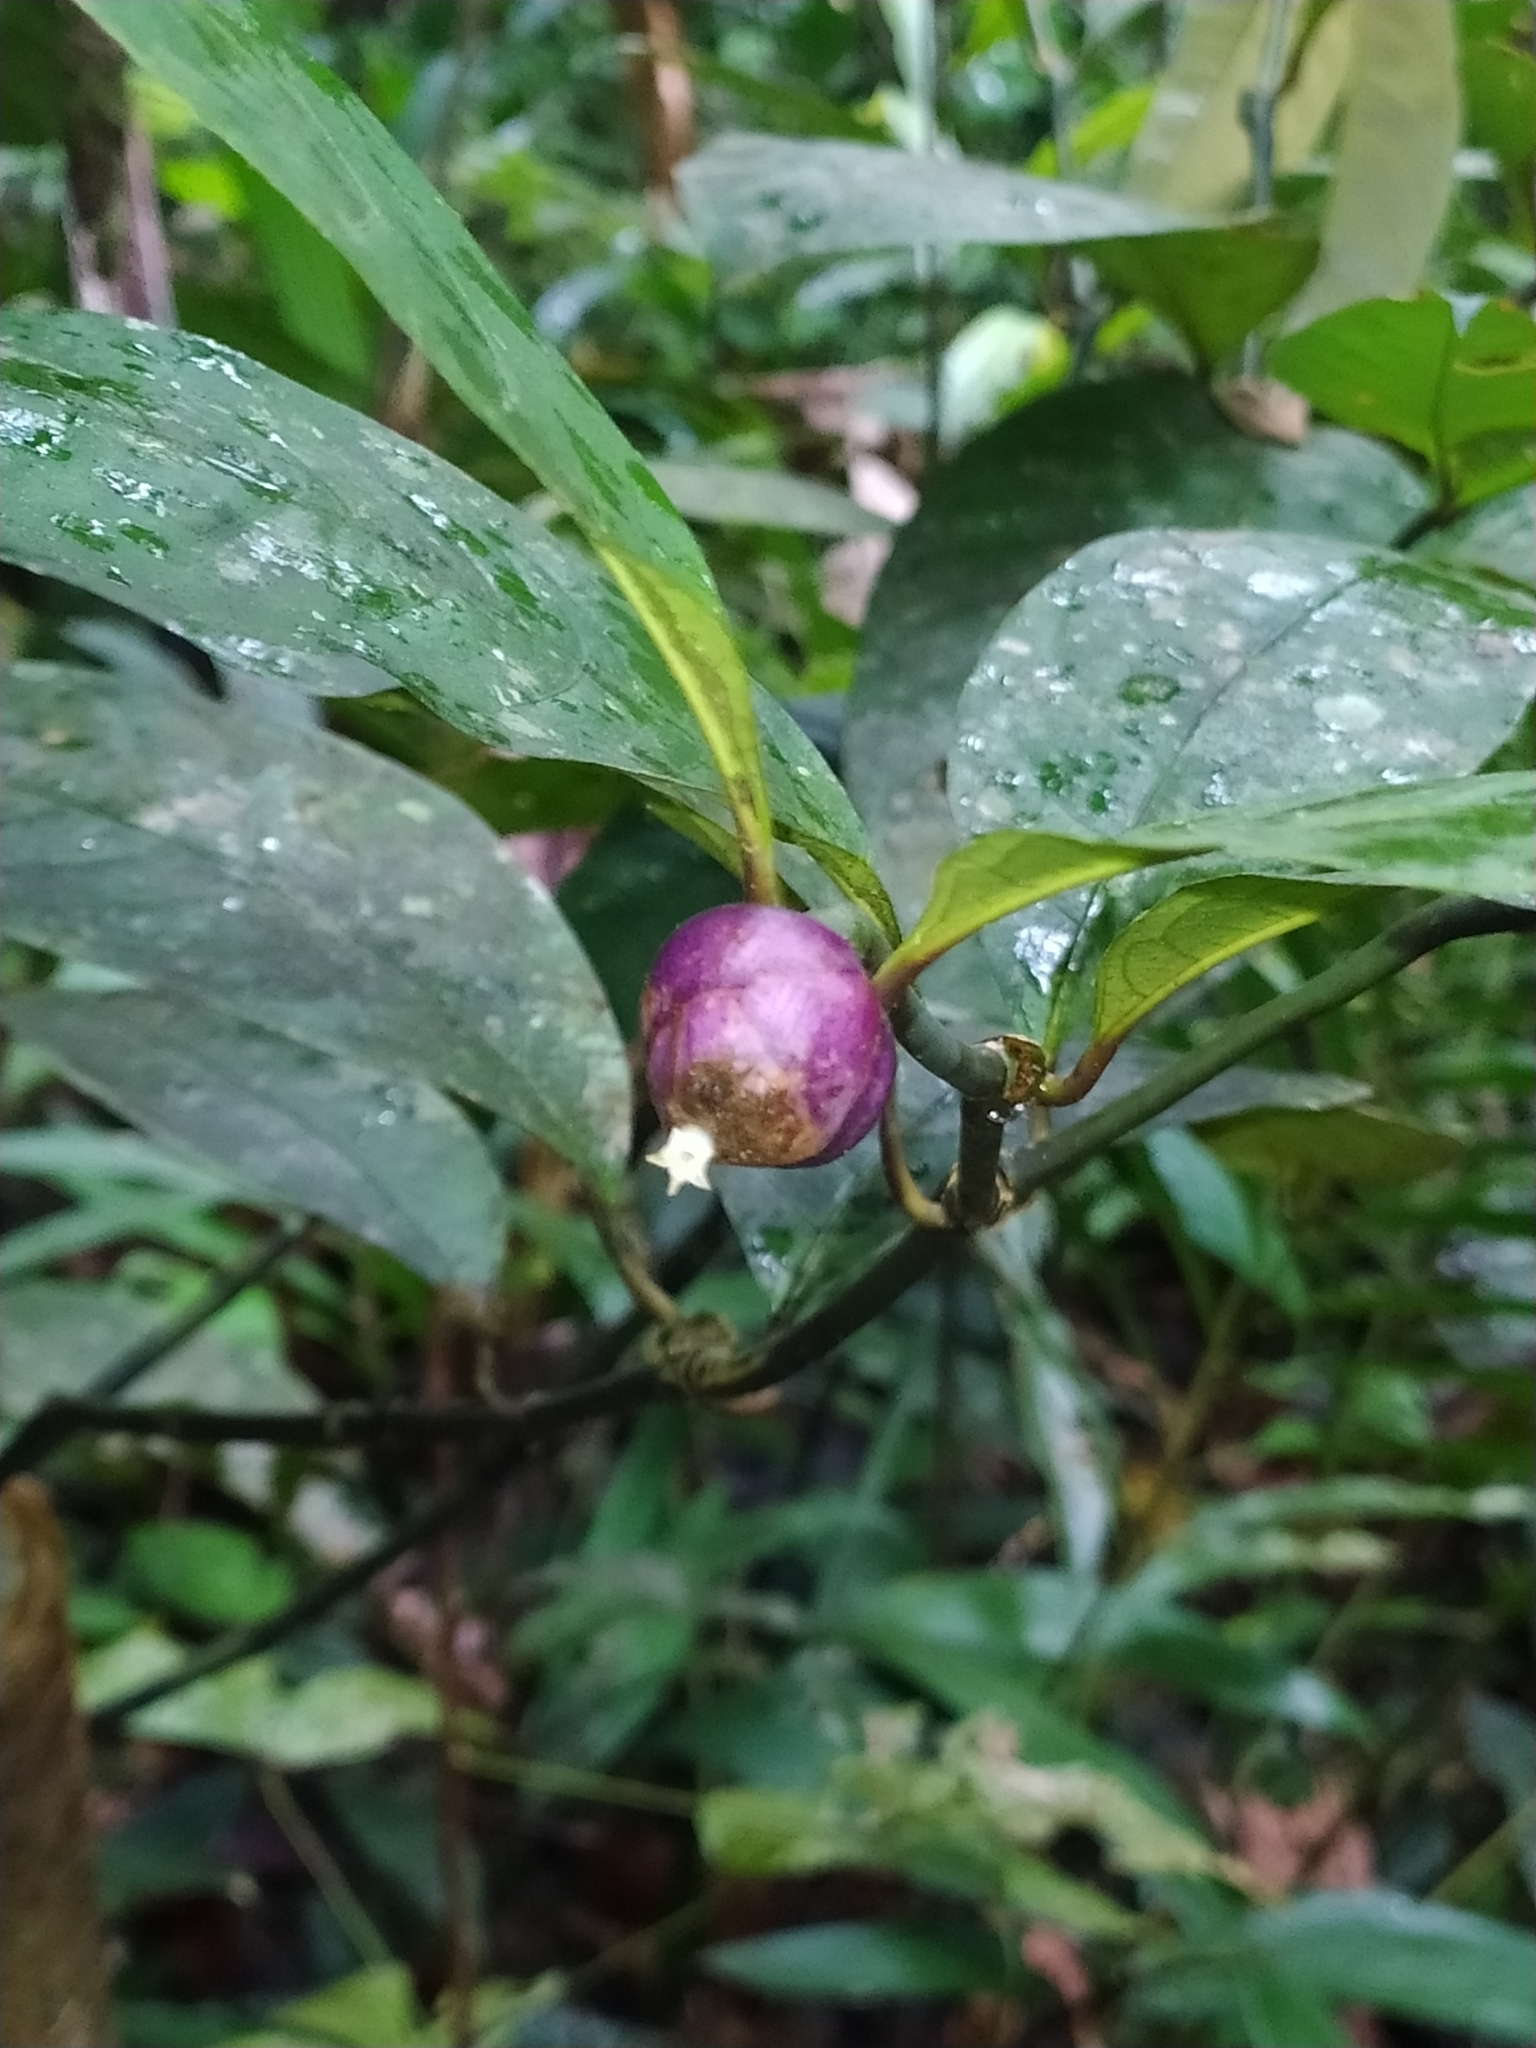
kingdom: Plantae
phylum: Tracheophyta
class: Magnoliopsida
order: Gentianales
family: Rubiaceae
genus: Palicourea
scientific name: Palicourea apoda
